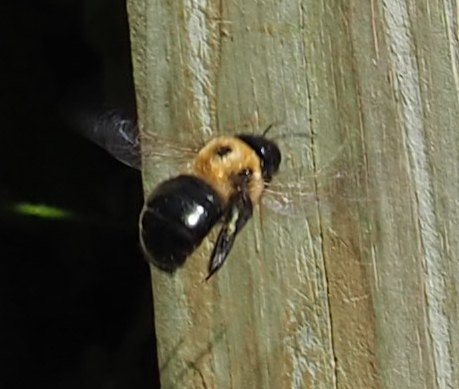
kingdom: Animalia
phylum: Arthropoda
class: Insecta
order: Hymenoptera
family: Apidae
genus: Xylocopa
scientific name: Xylocopa virginica
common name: Carpenter bee
